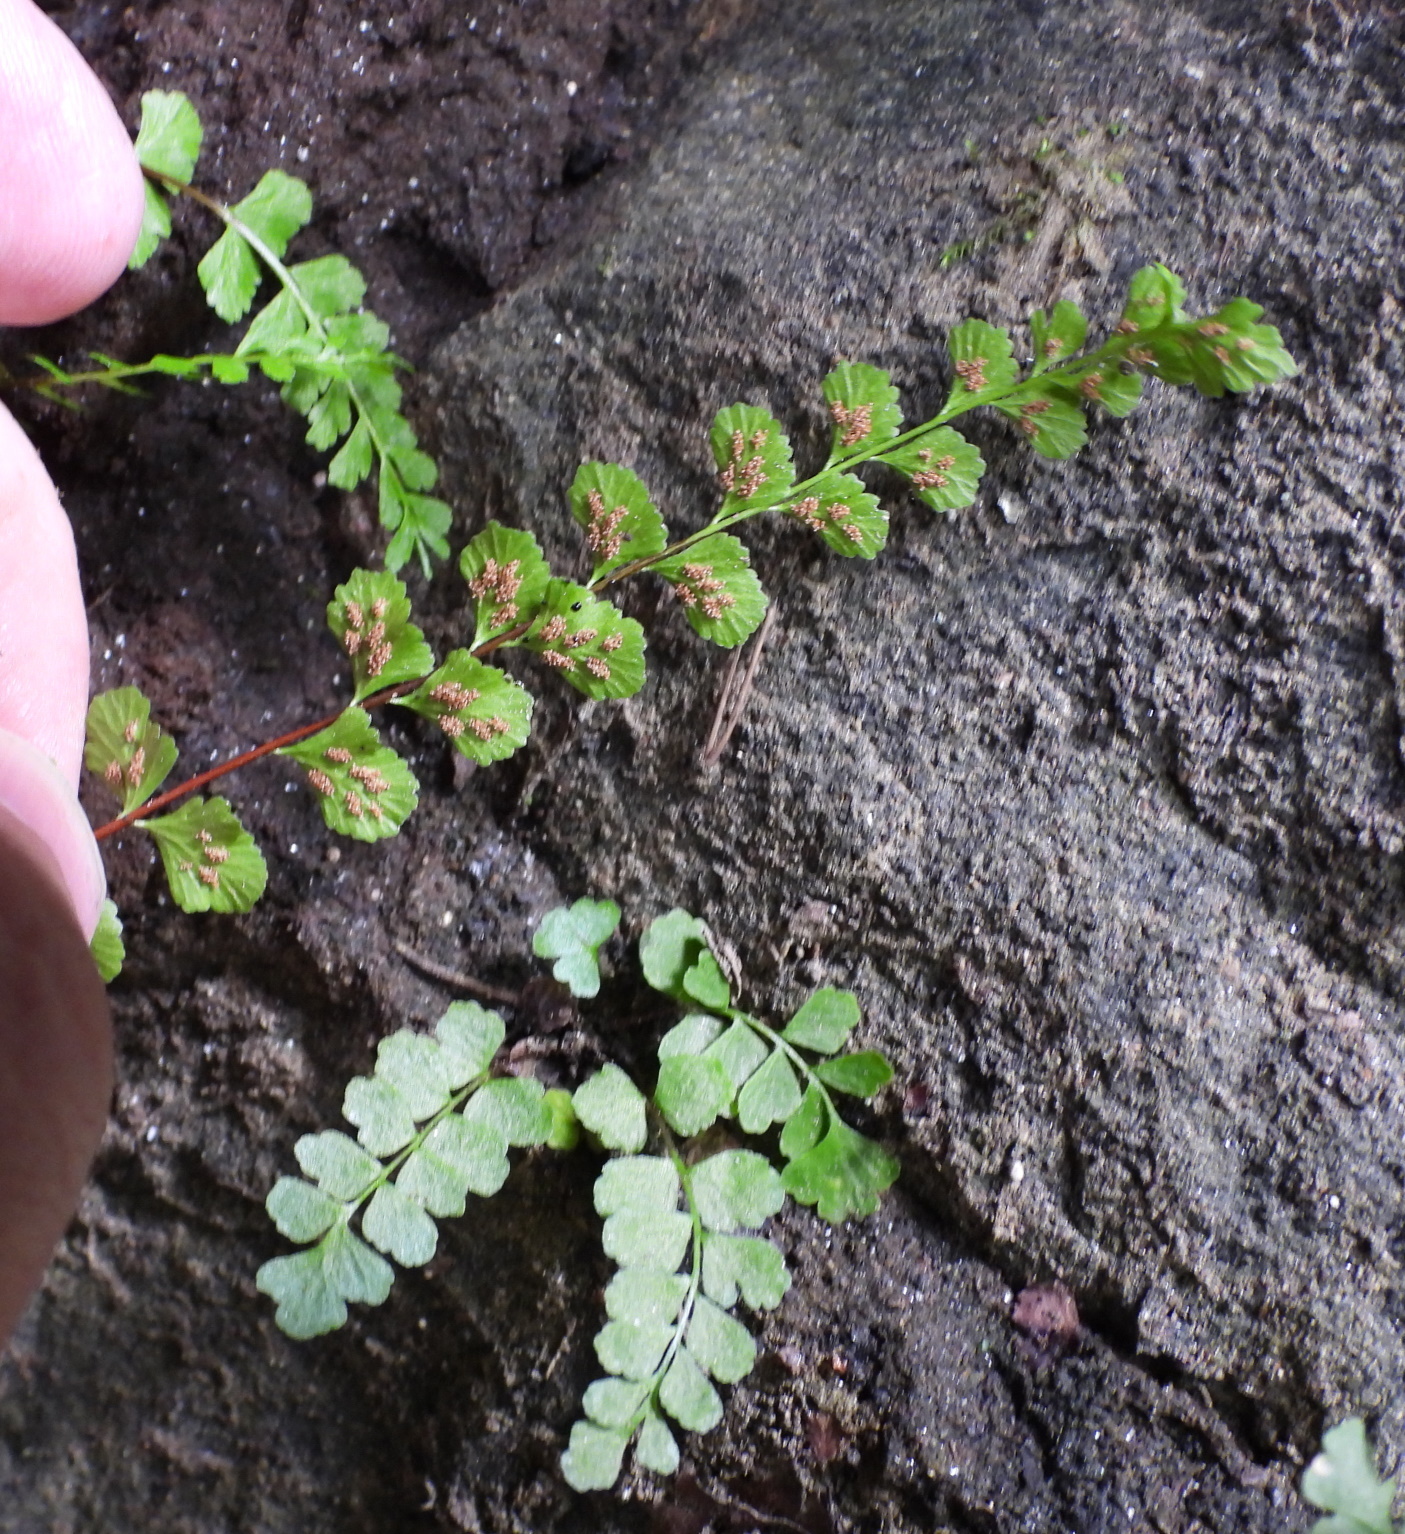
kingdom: Plantae
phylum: Tracheophyta
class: Polypodiopsida
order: Polypodiales
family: Aspleniaceae
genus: Asplenium
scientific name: Asplenium adulterinum
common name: Adulterated spleenwort
